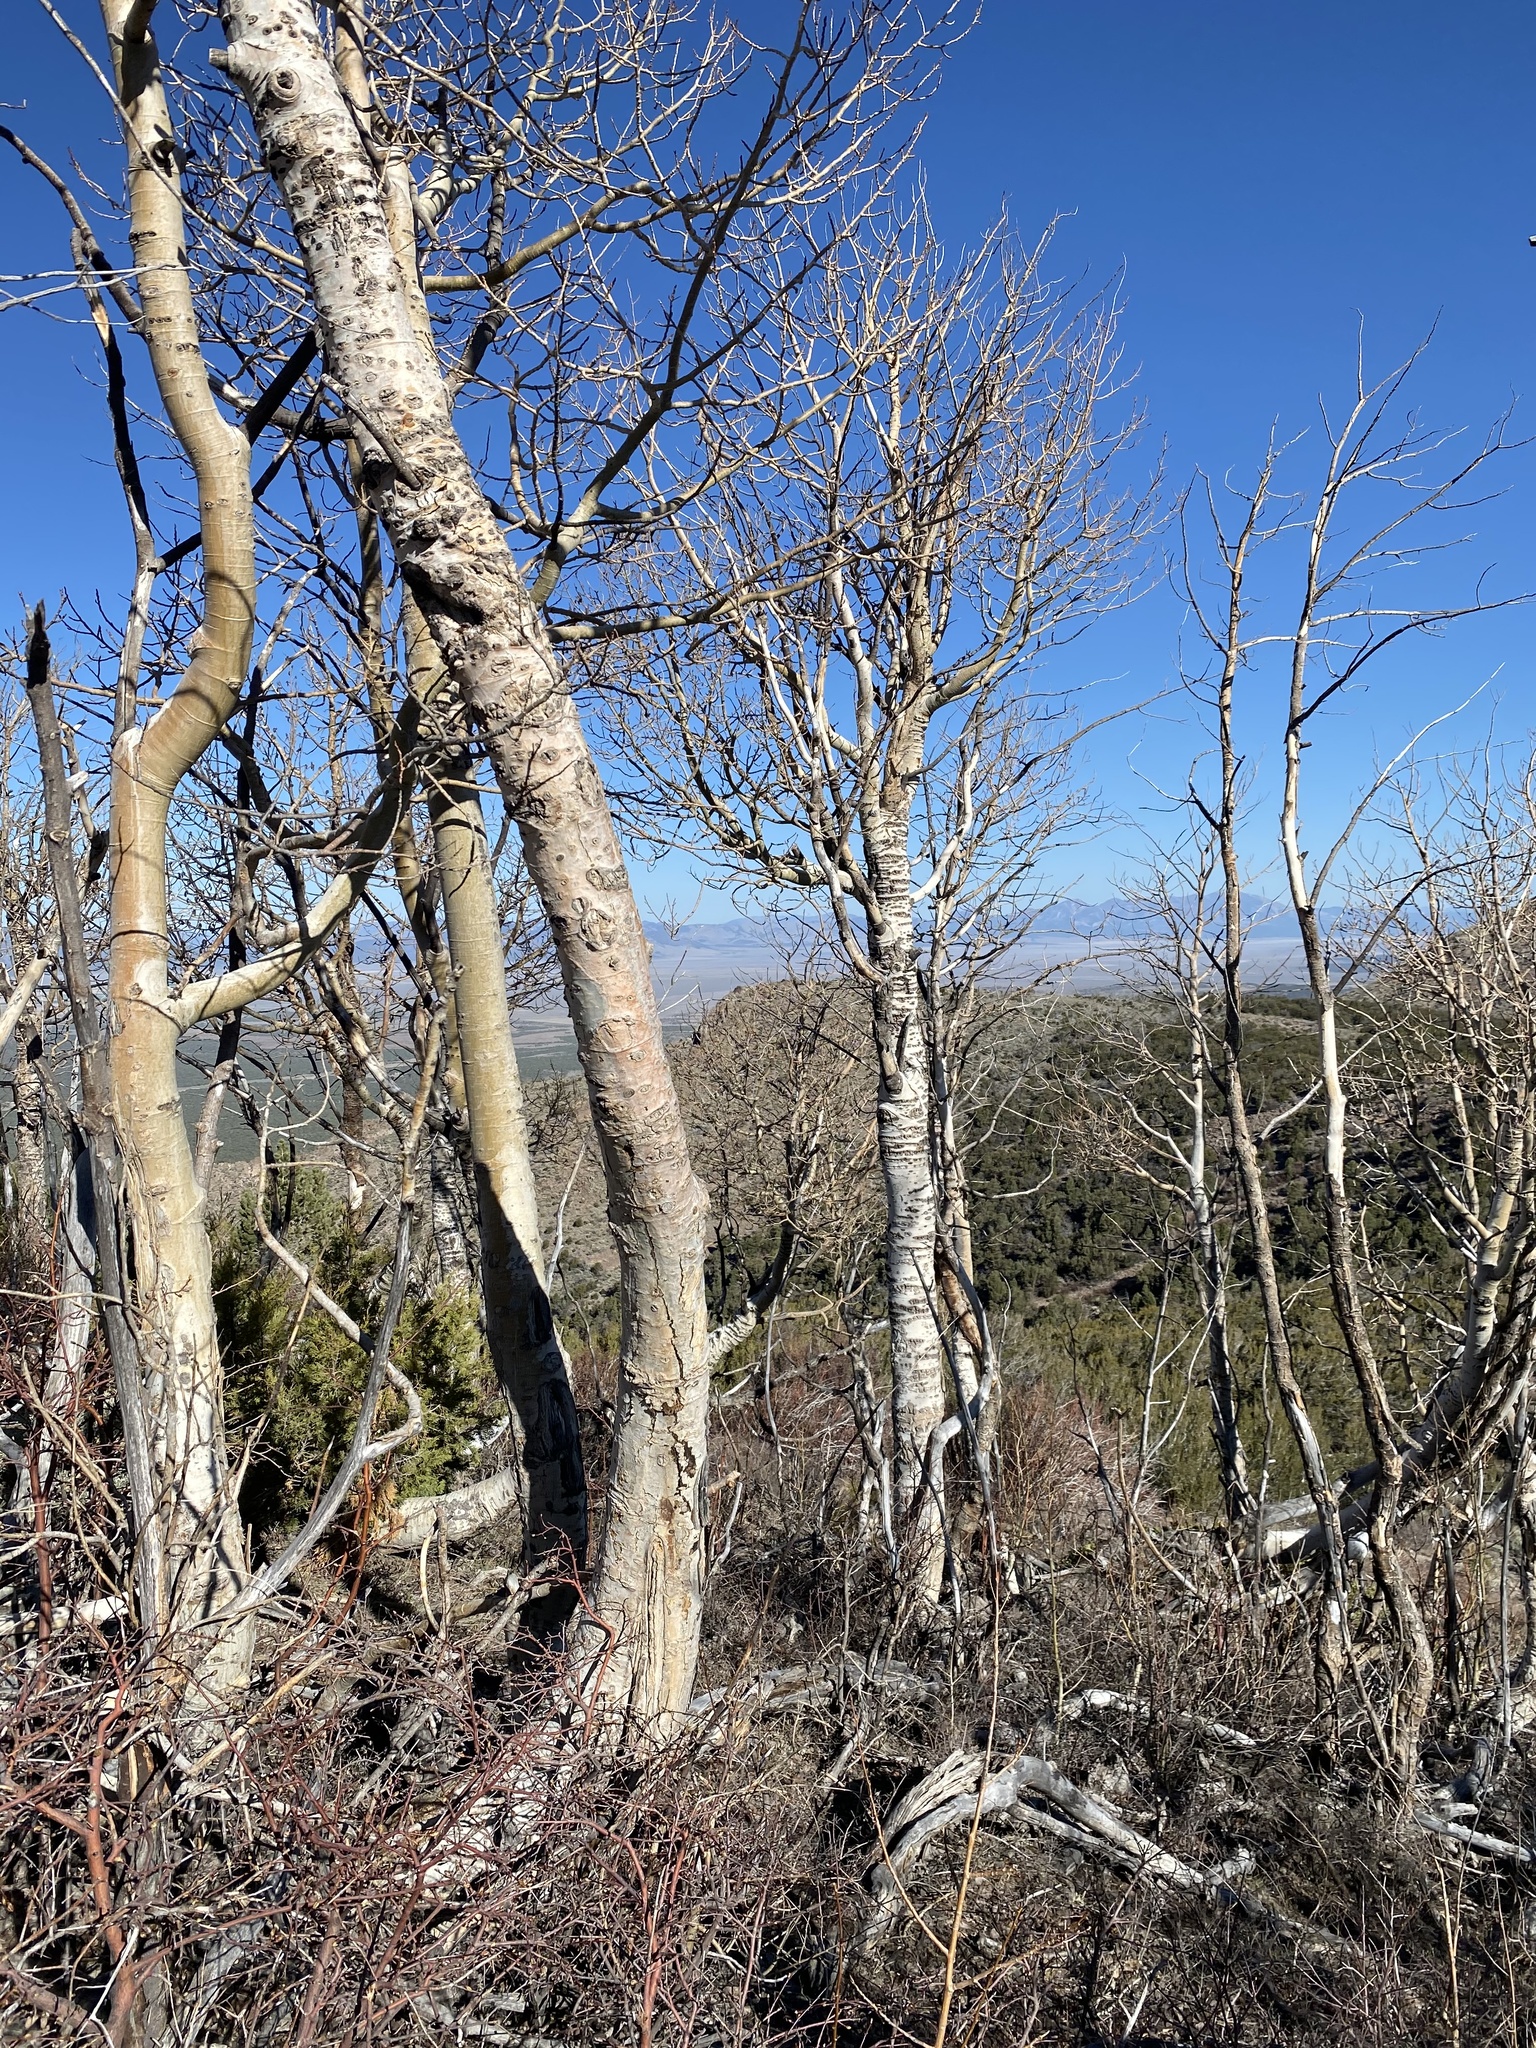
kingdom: Plantae
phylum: Tracheophyta
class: Magnoliopsida
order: Malpighiales
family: Salicaceae
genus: Populus
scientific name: Populus tremuloides
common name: Quaking aspen
